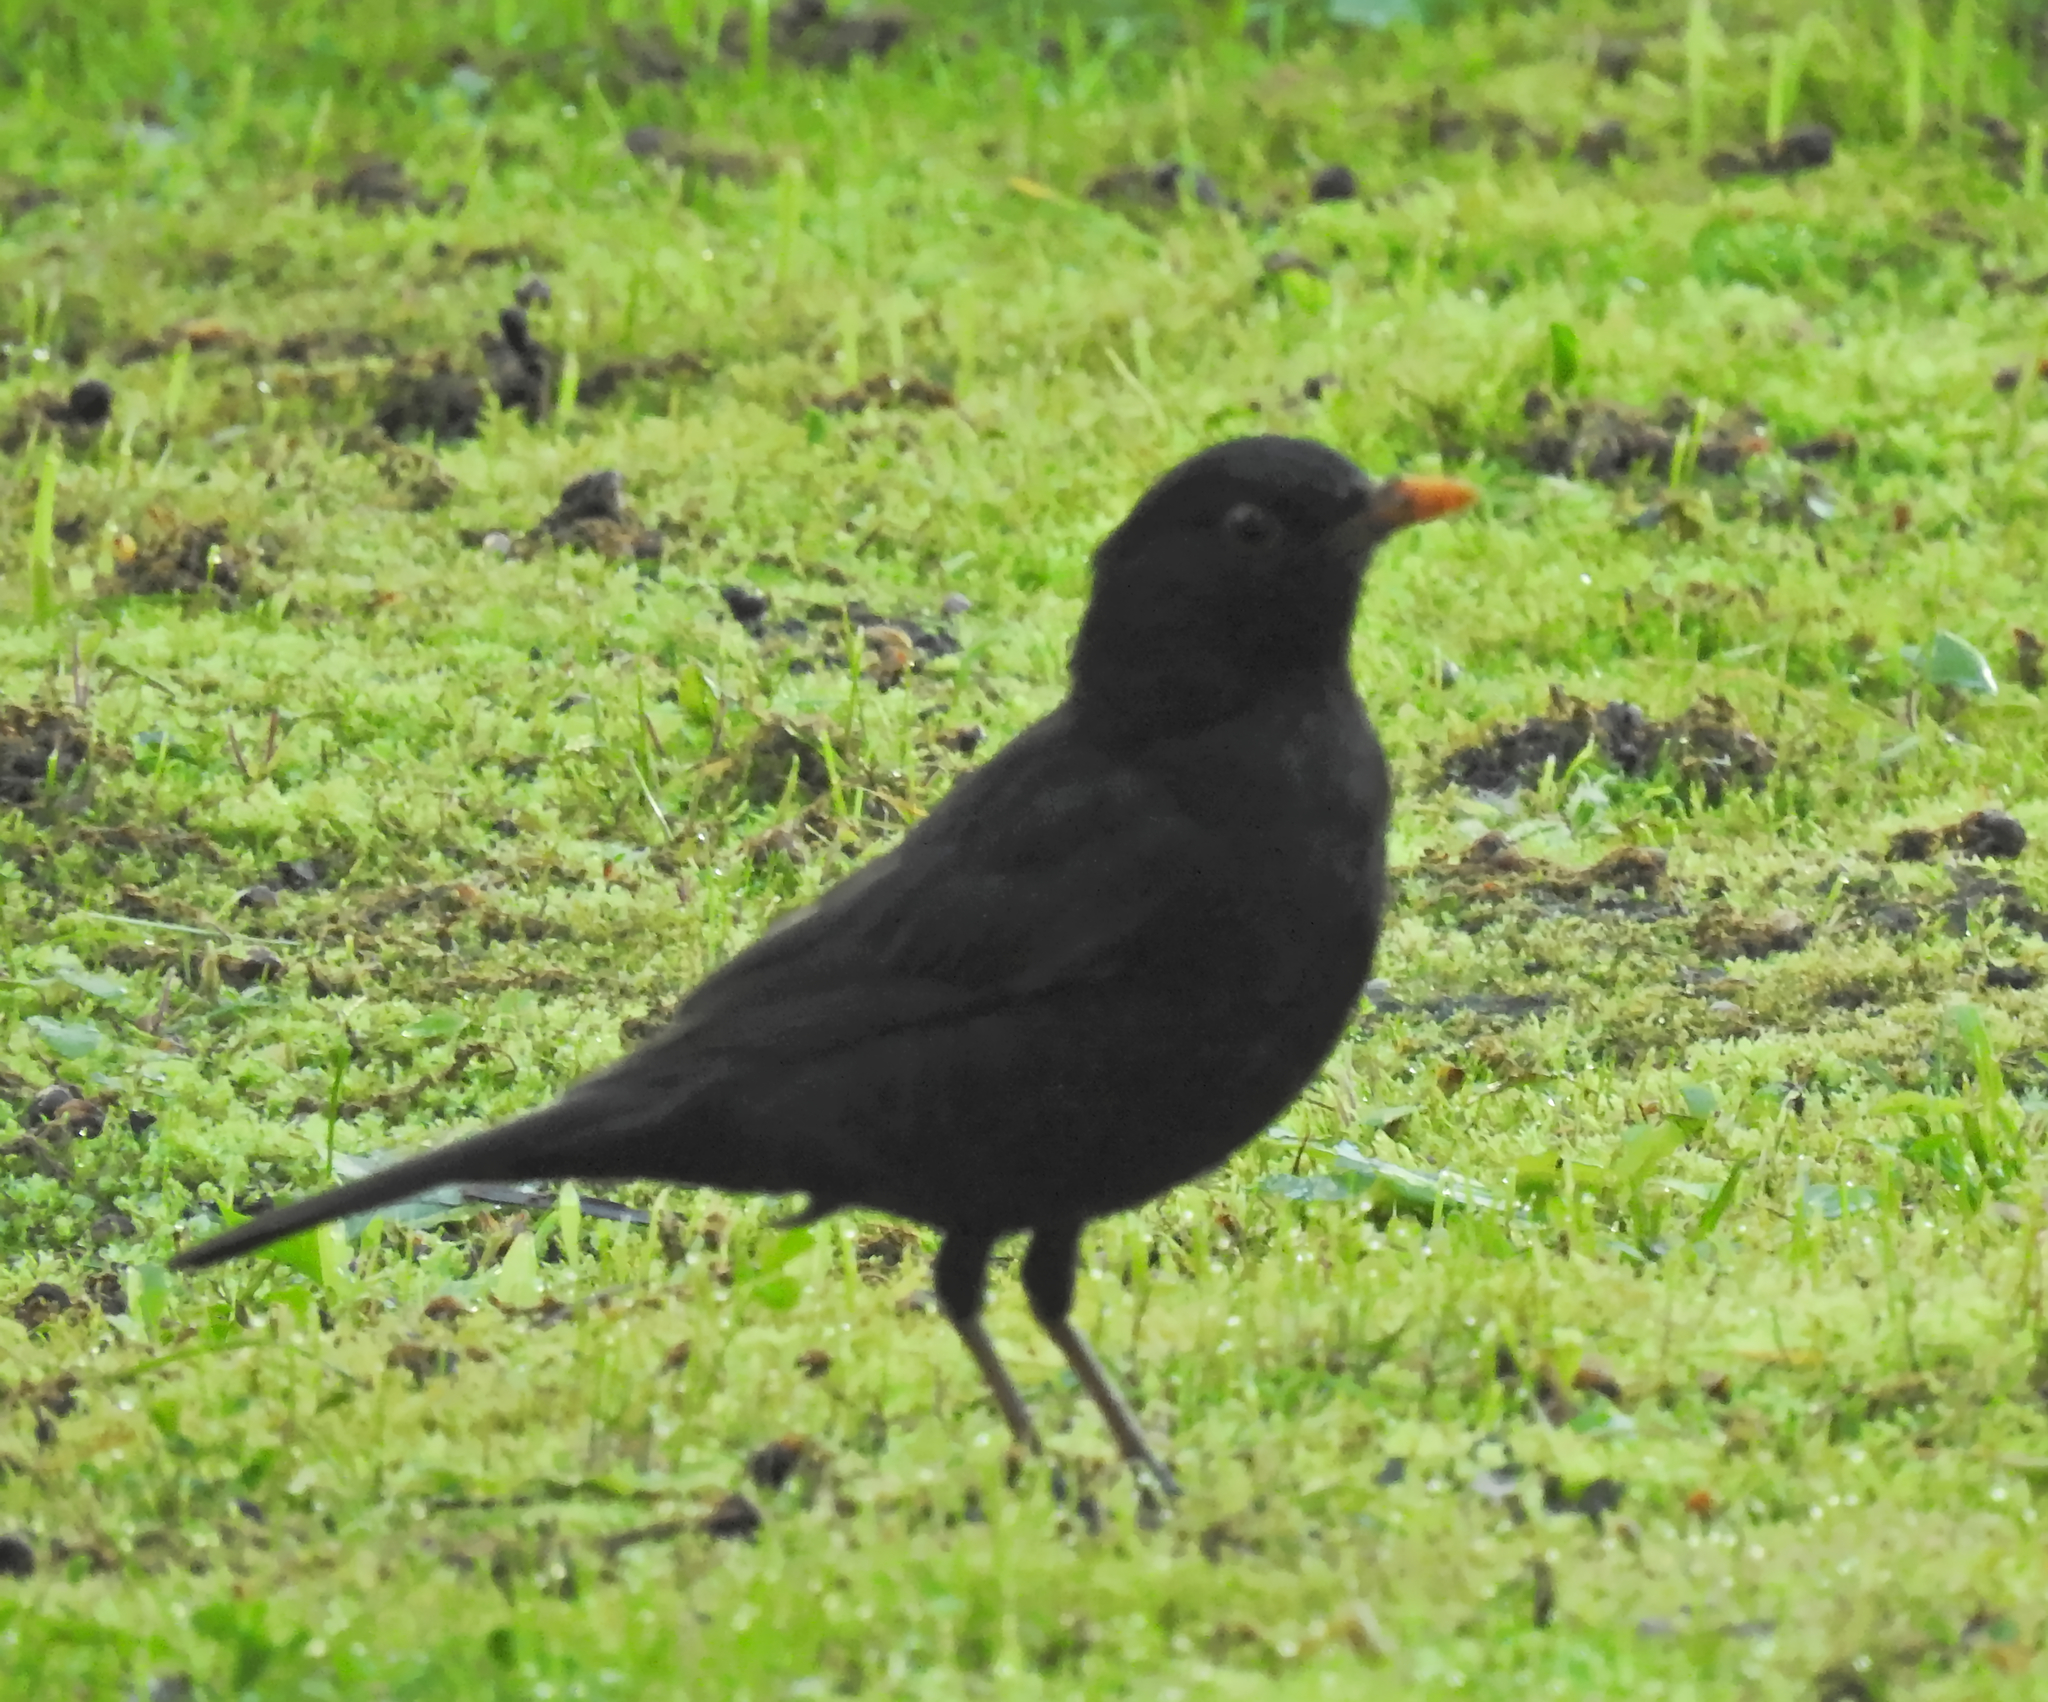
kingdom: Animalia
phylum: Chordata
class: Aves
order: Passeriformes
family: Turdidae
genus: Turdus
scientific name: Turdus merula
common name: Common blackbird
